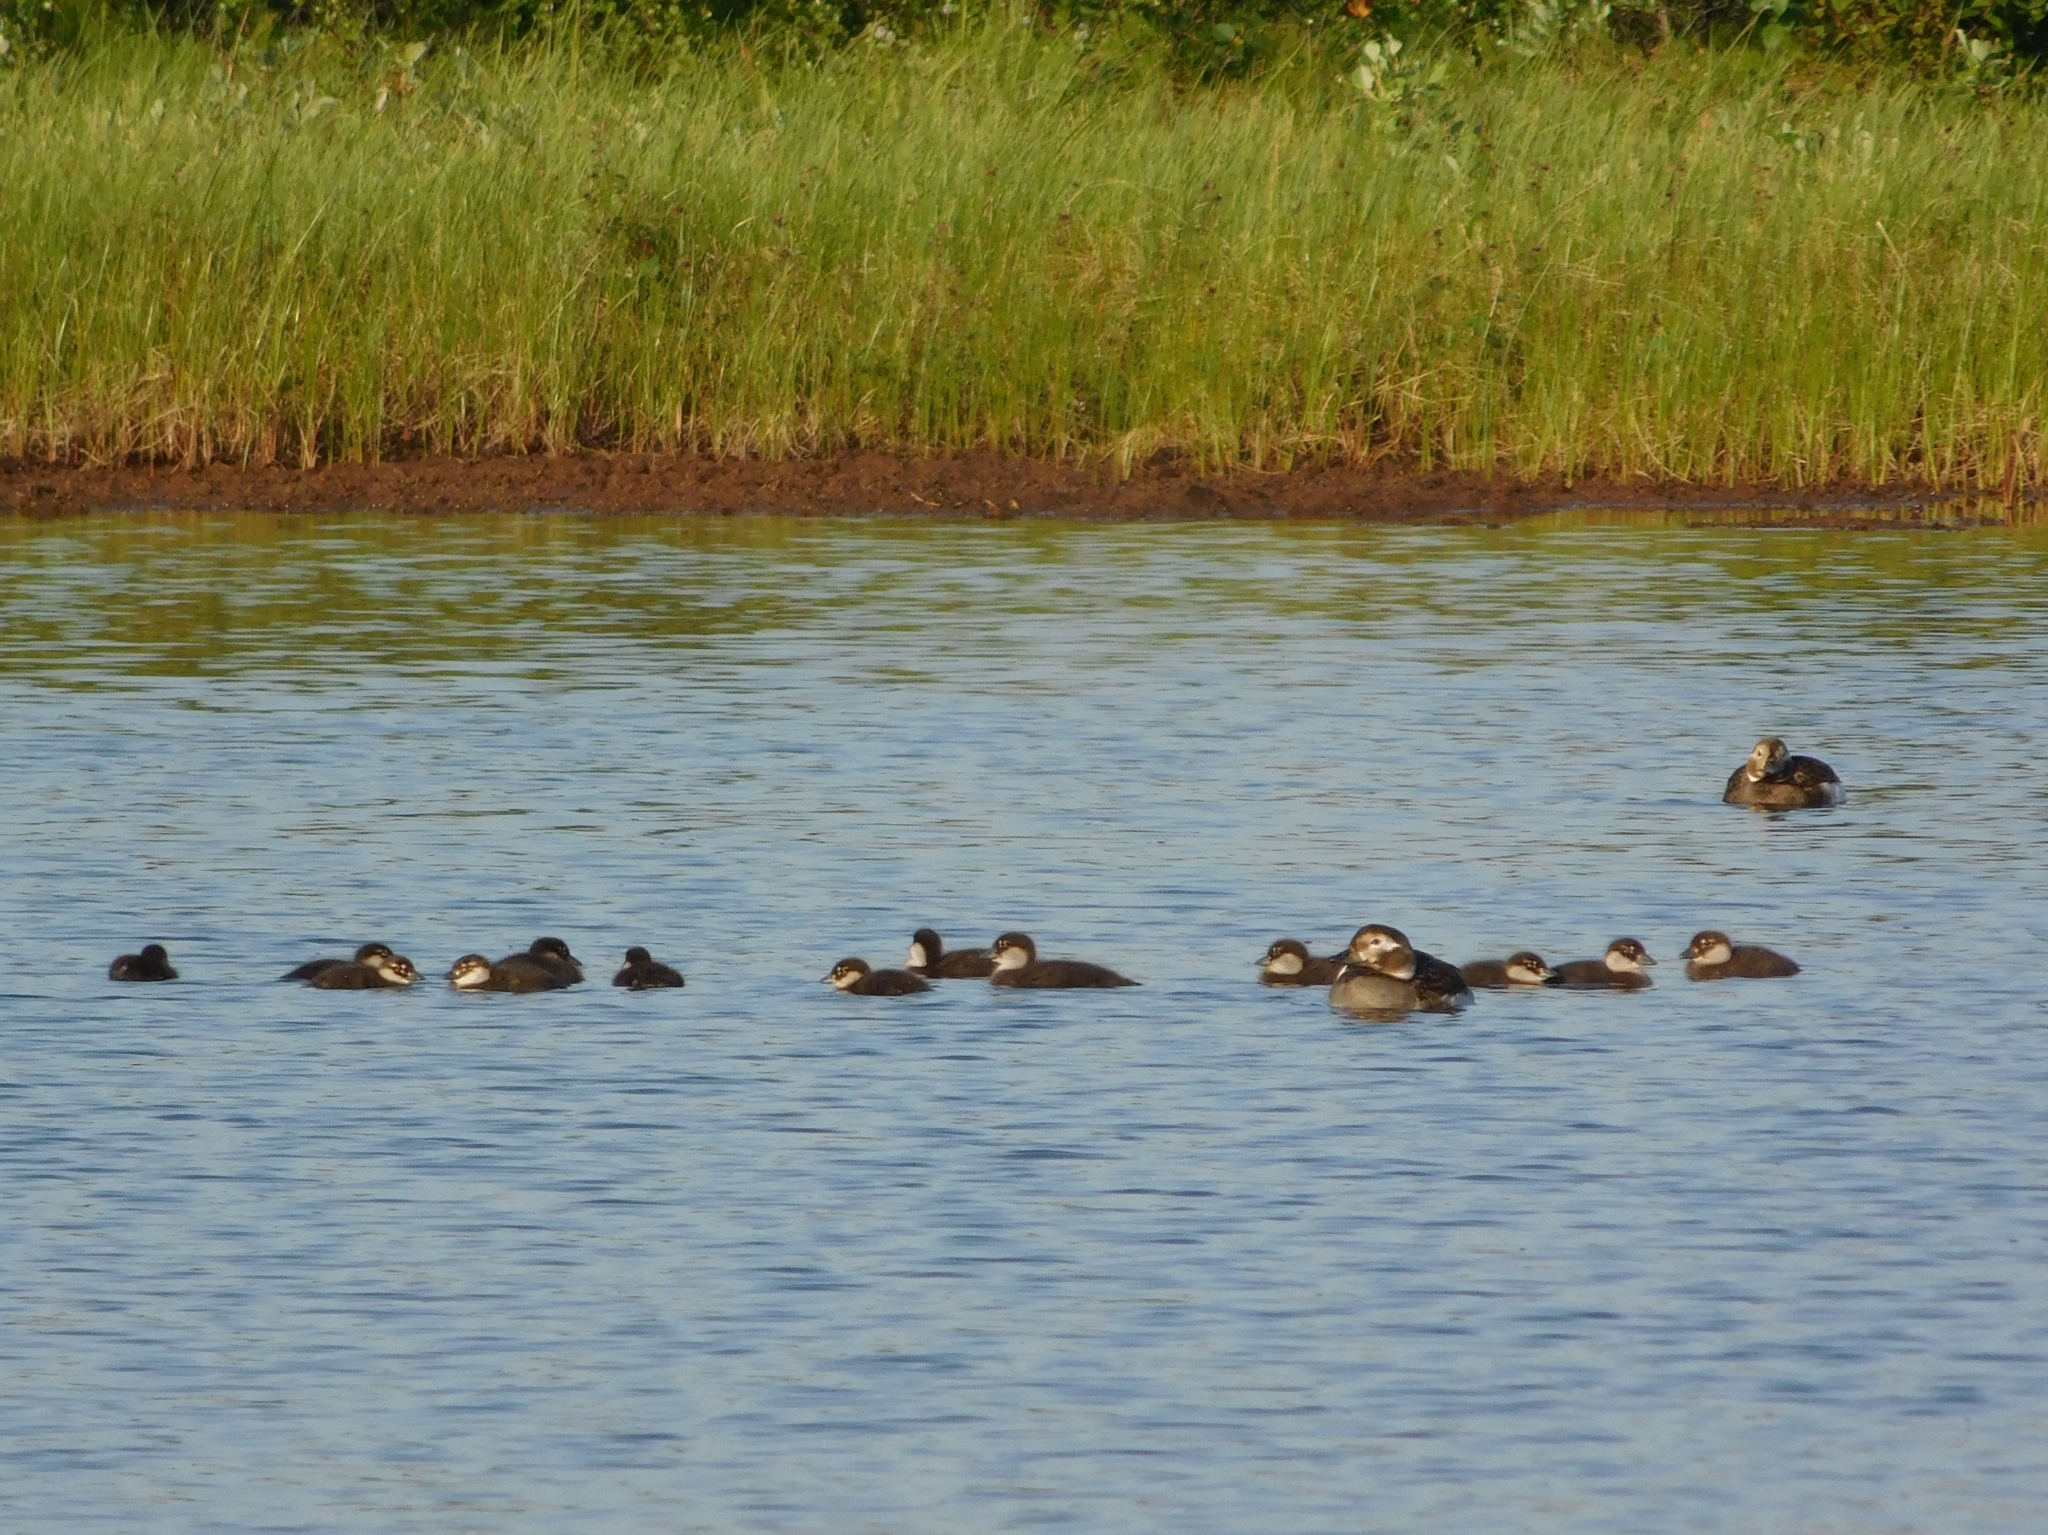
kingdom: Animalia
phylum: Chordata
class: Aves
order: Anseriformes
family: Anatidae
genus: Clangula
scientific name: Clangula hyemalis
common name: Long-tailed duck
